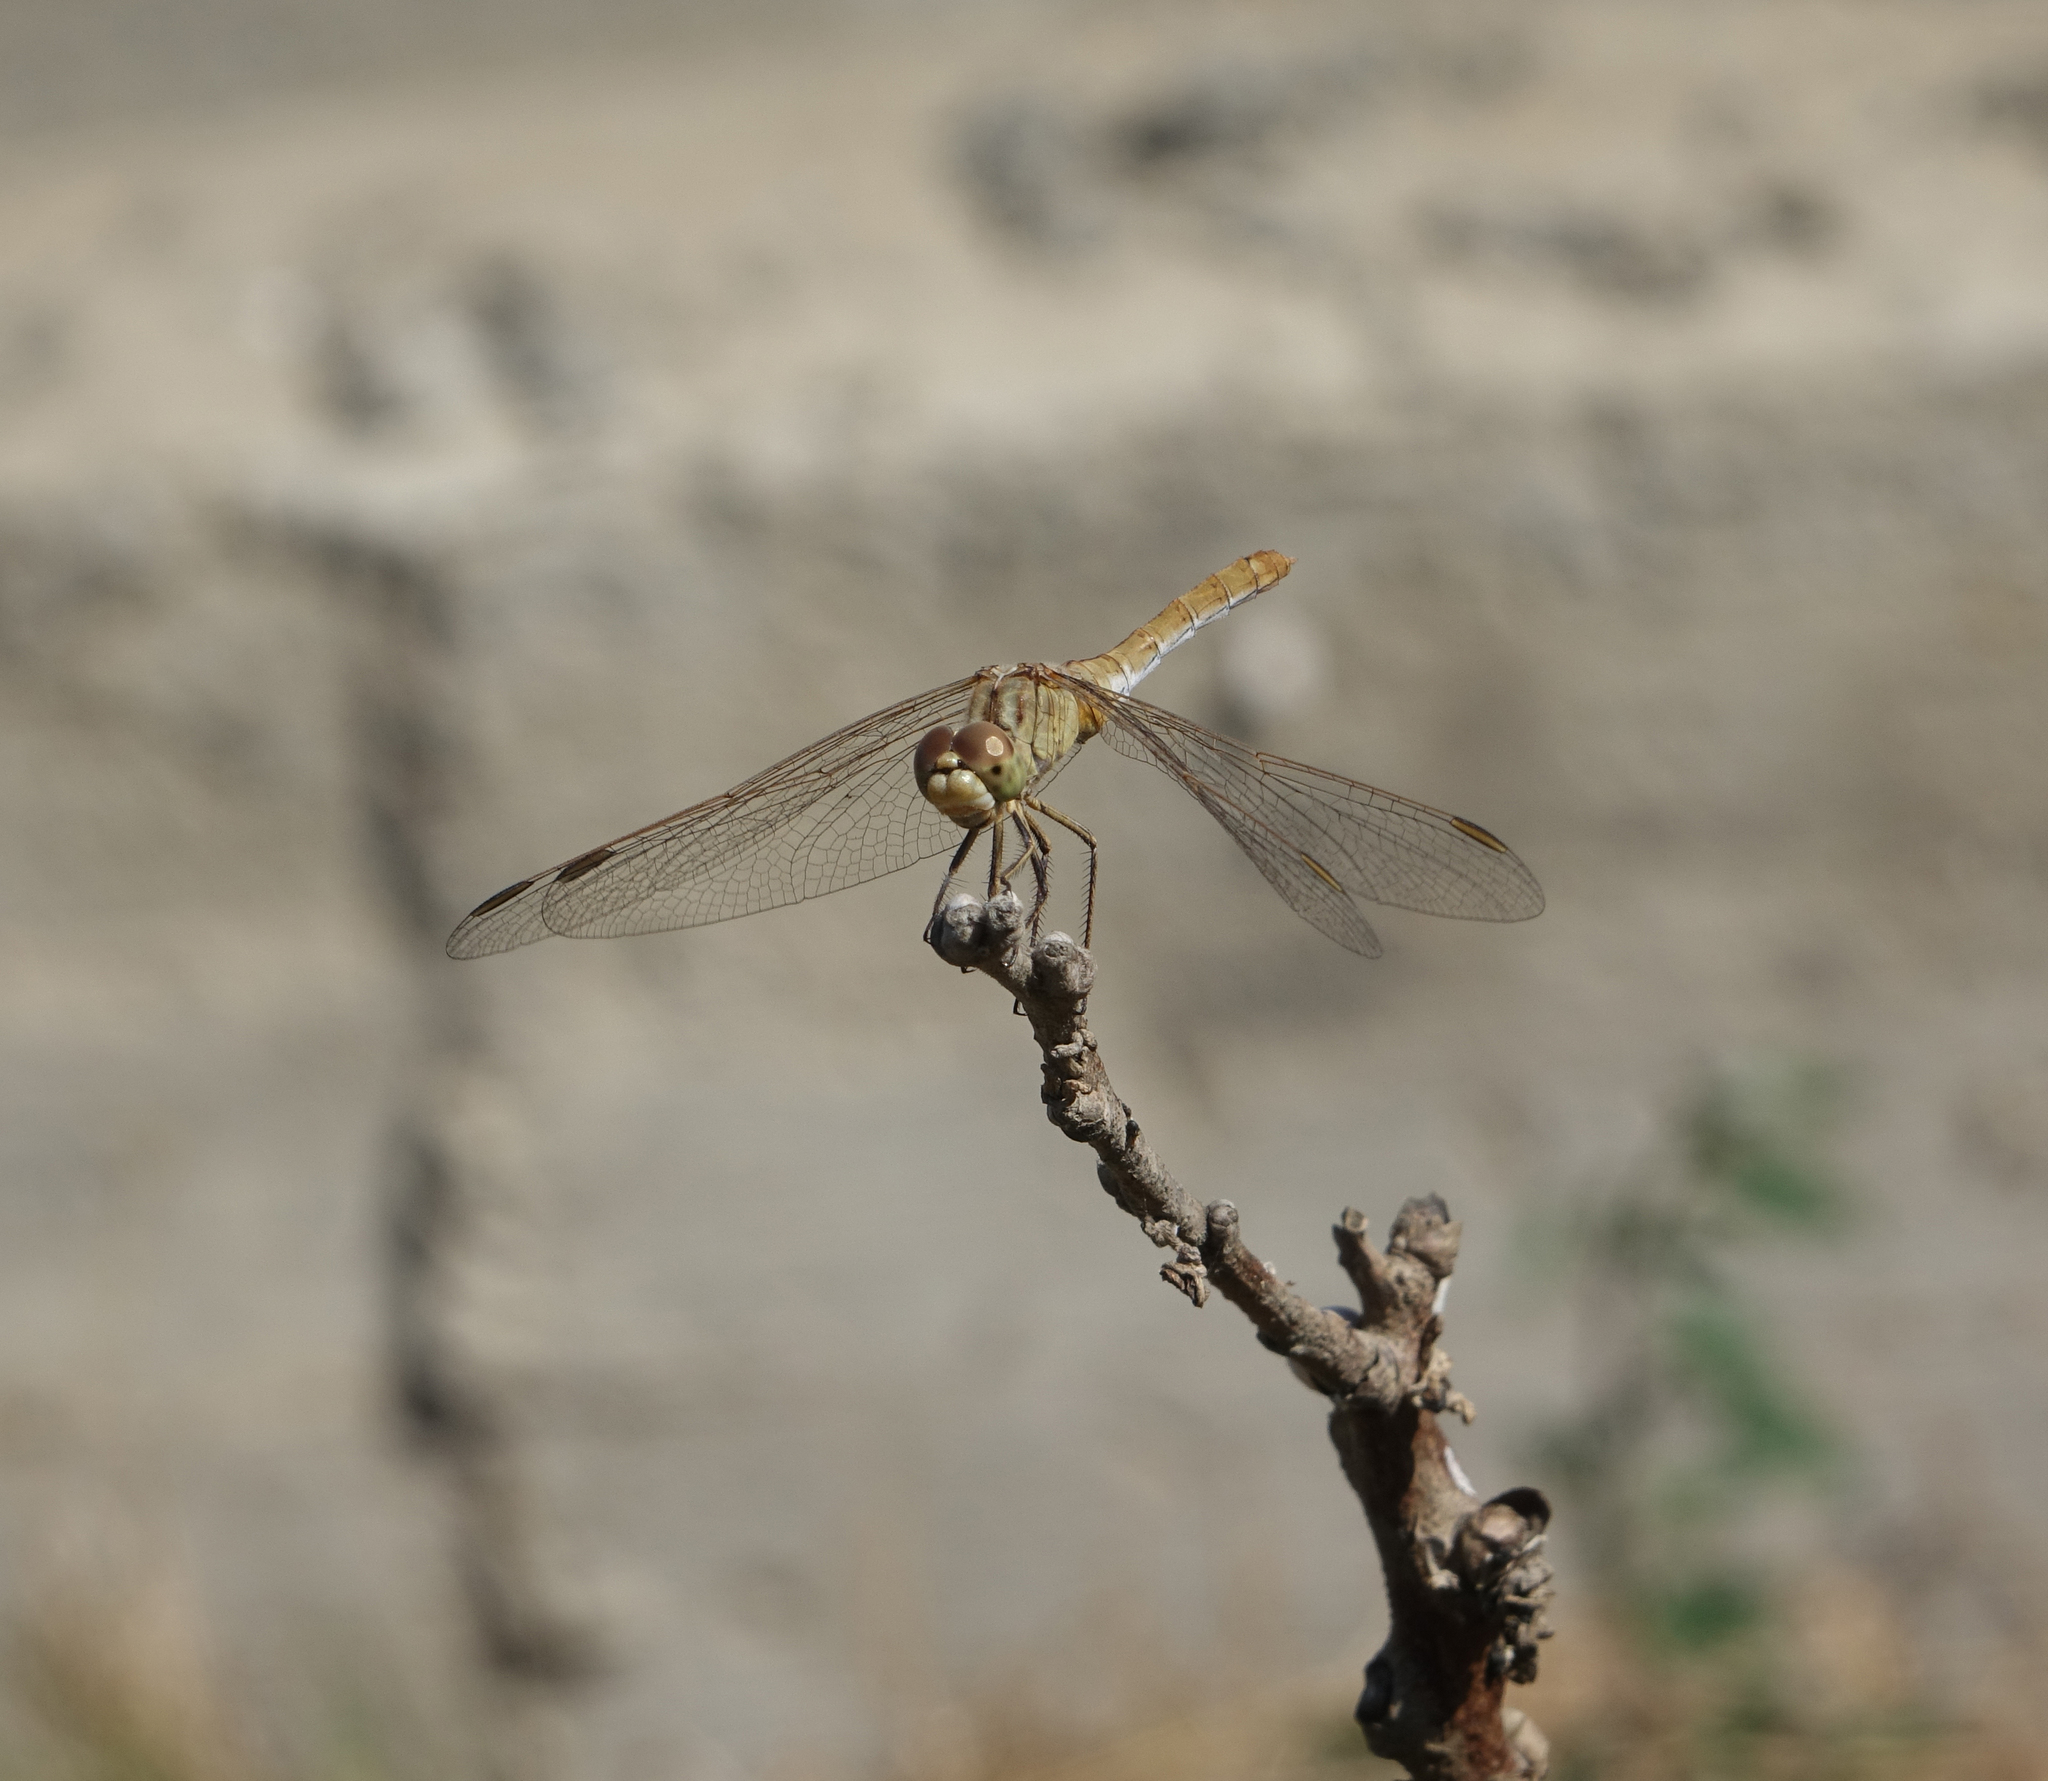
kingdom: Animalia
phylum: Arthropoda
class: Insecta
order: Odonata
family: Libellulidae
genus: Sympetrum
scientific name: Sympetrum meridionale
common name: Southern darter
